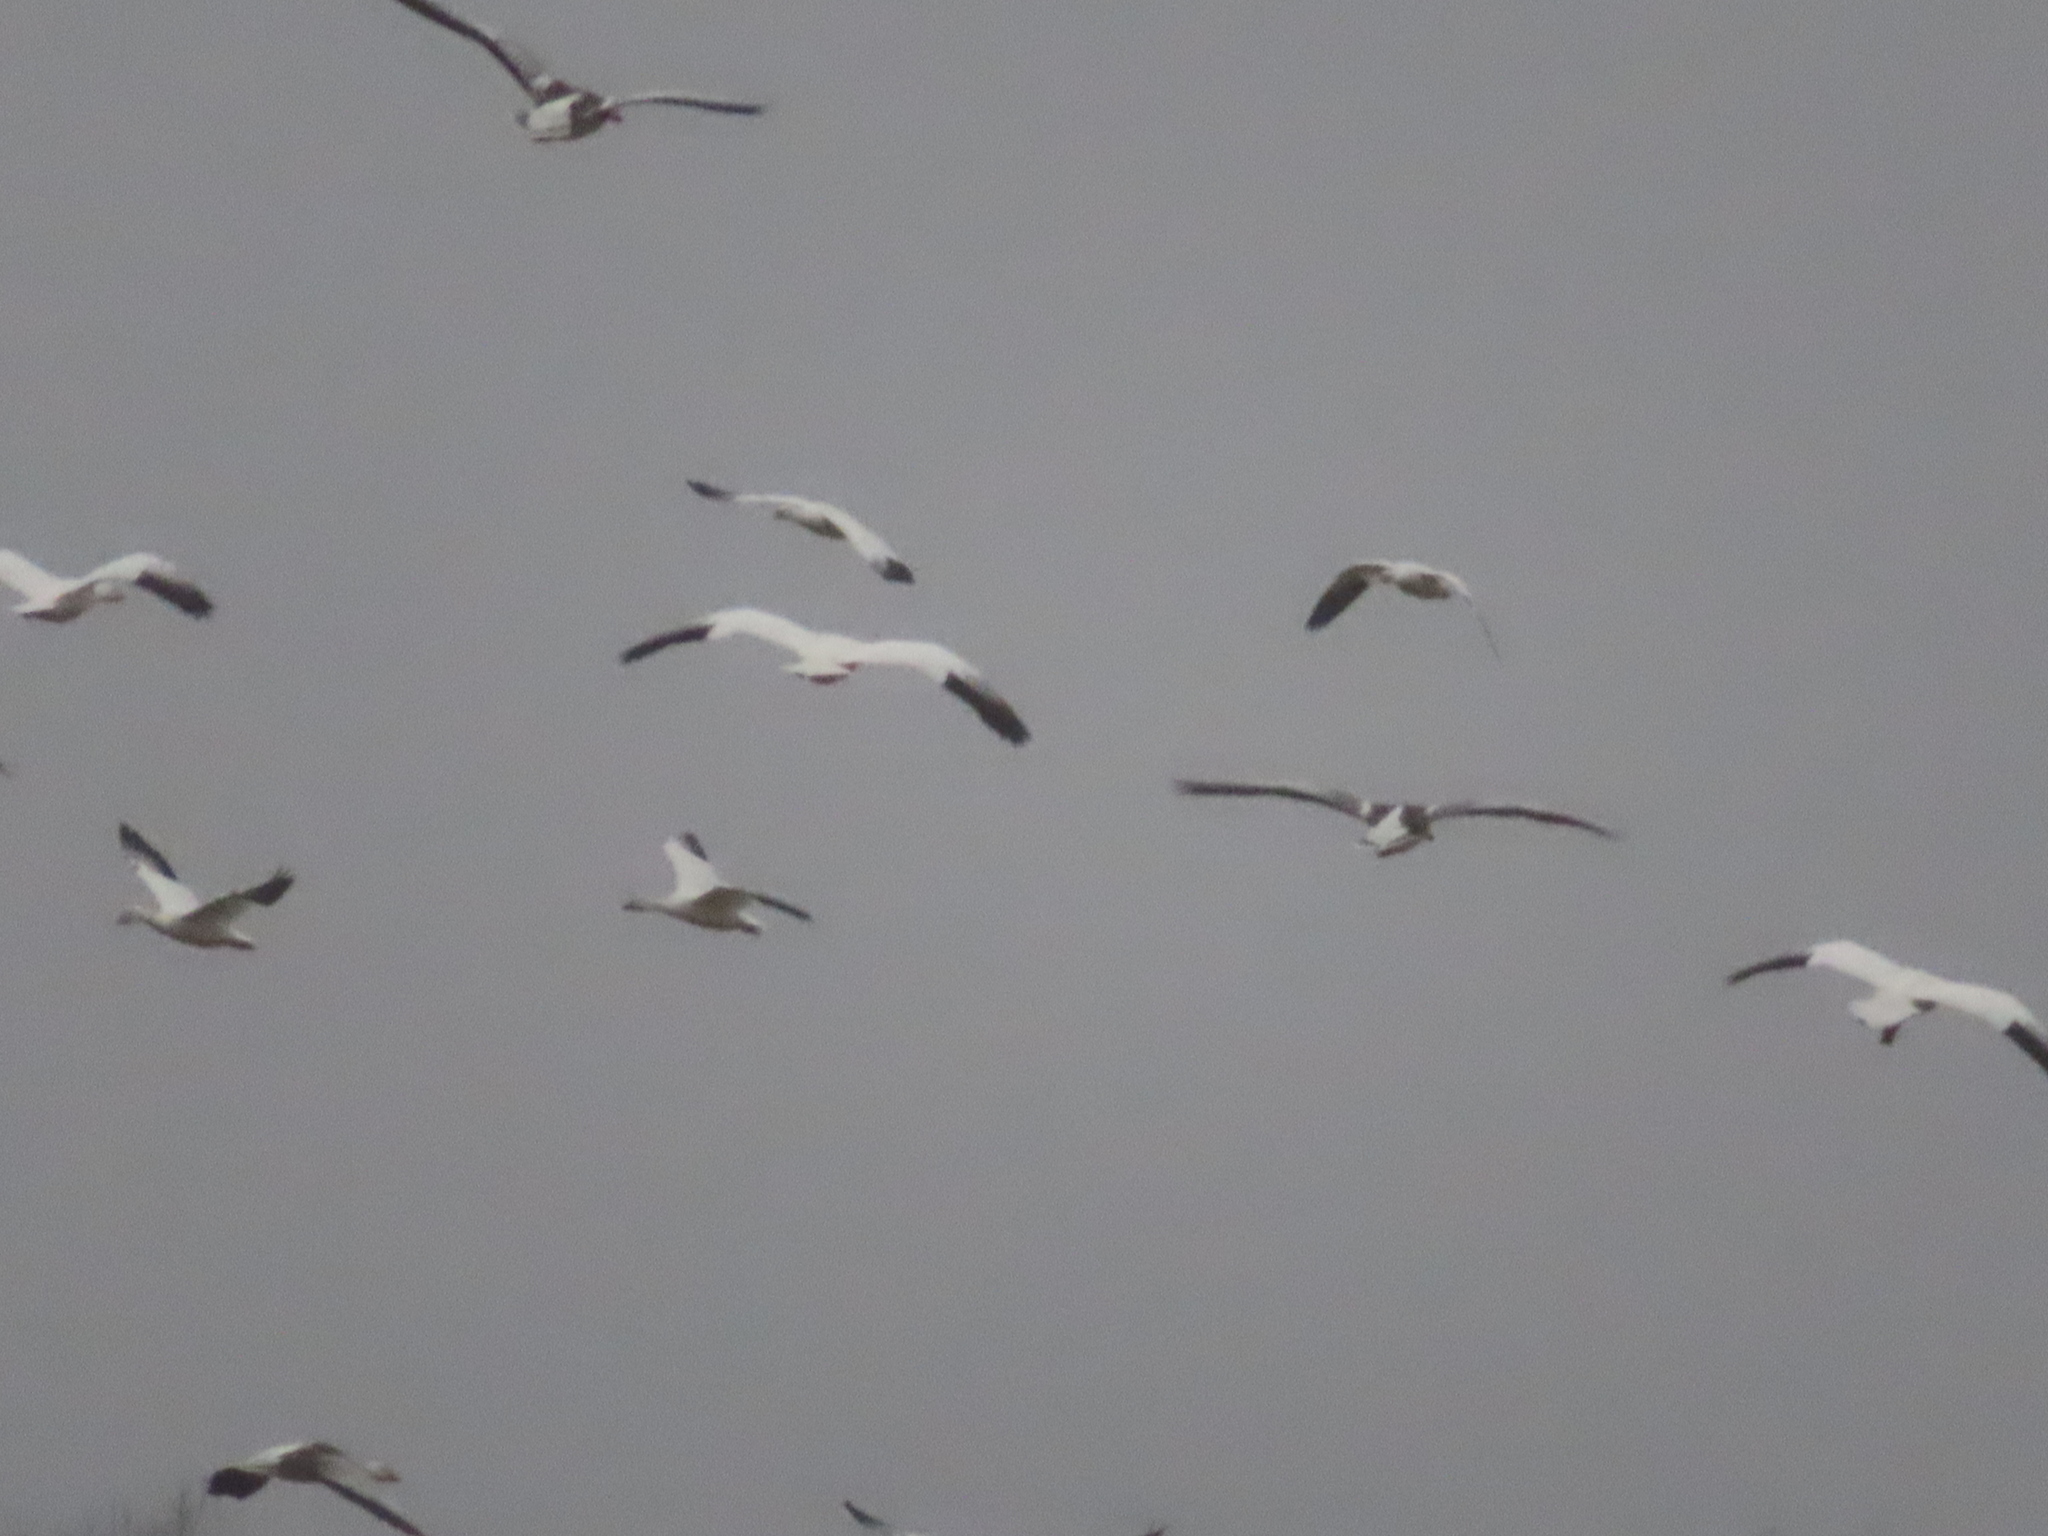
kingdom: Animalia
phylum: Chordata
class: Aves
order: Anseriformes
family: Anatidae
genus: Anser
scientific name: Anser caerulescens
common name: Snow goose
